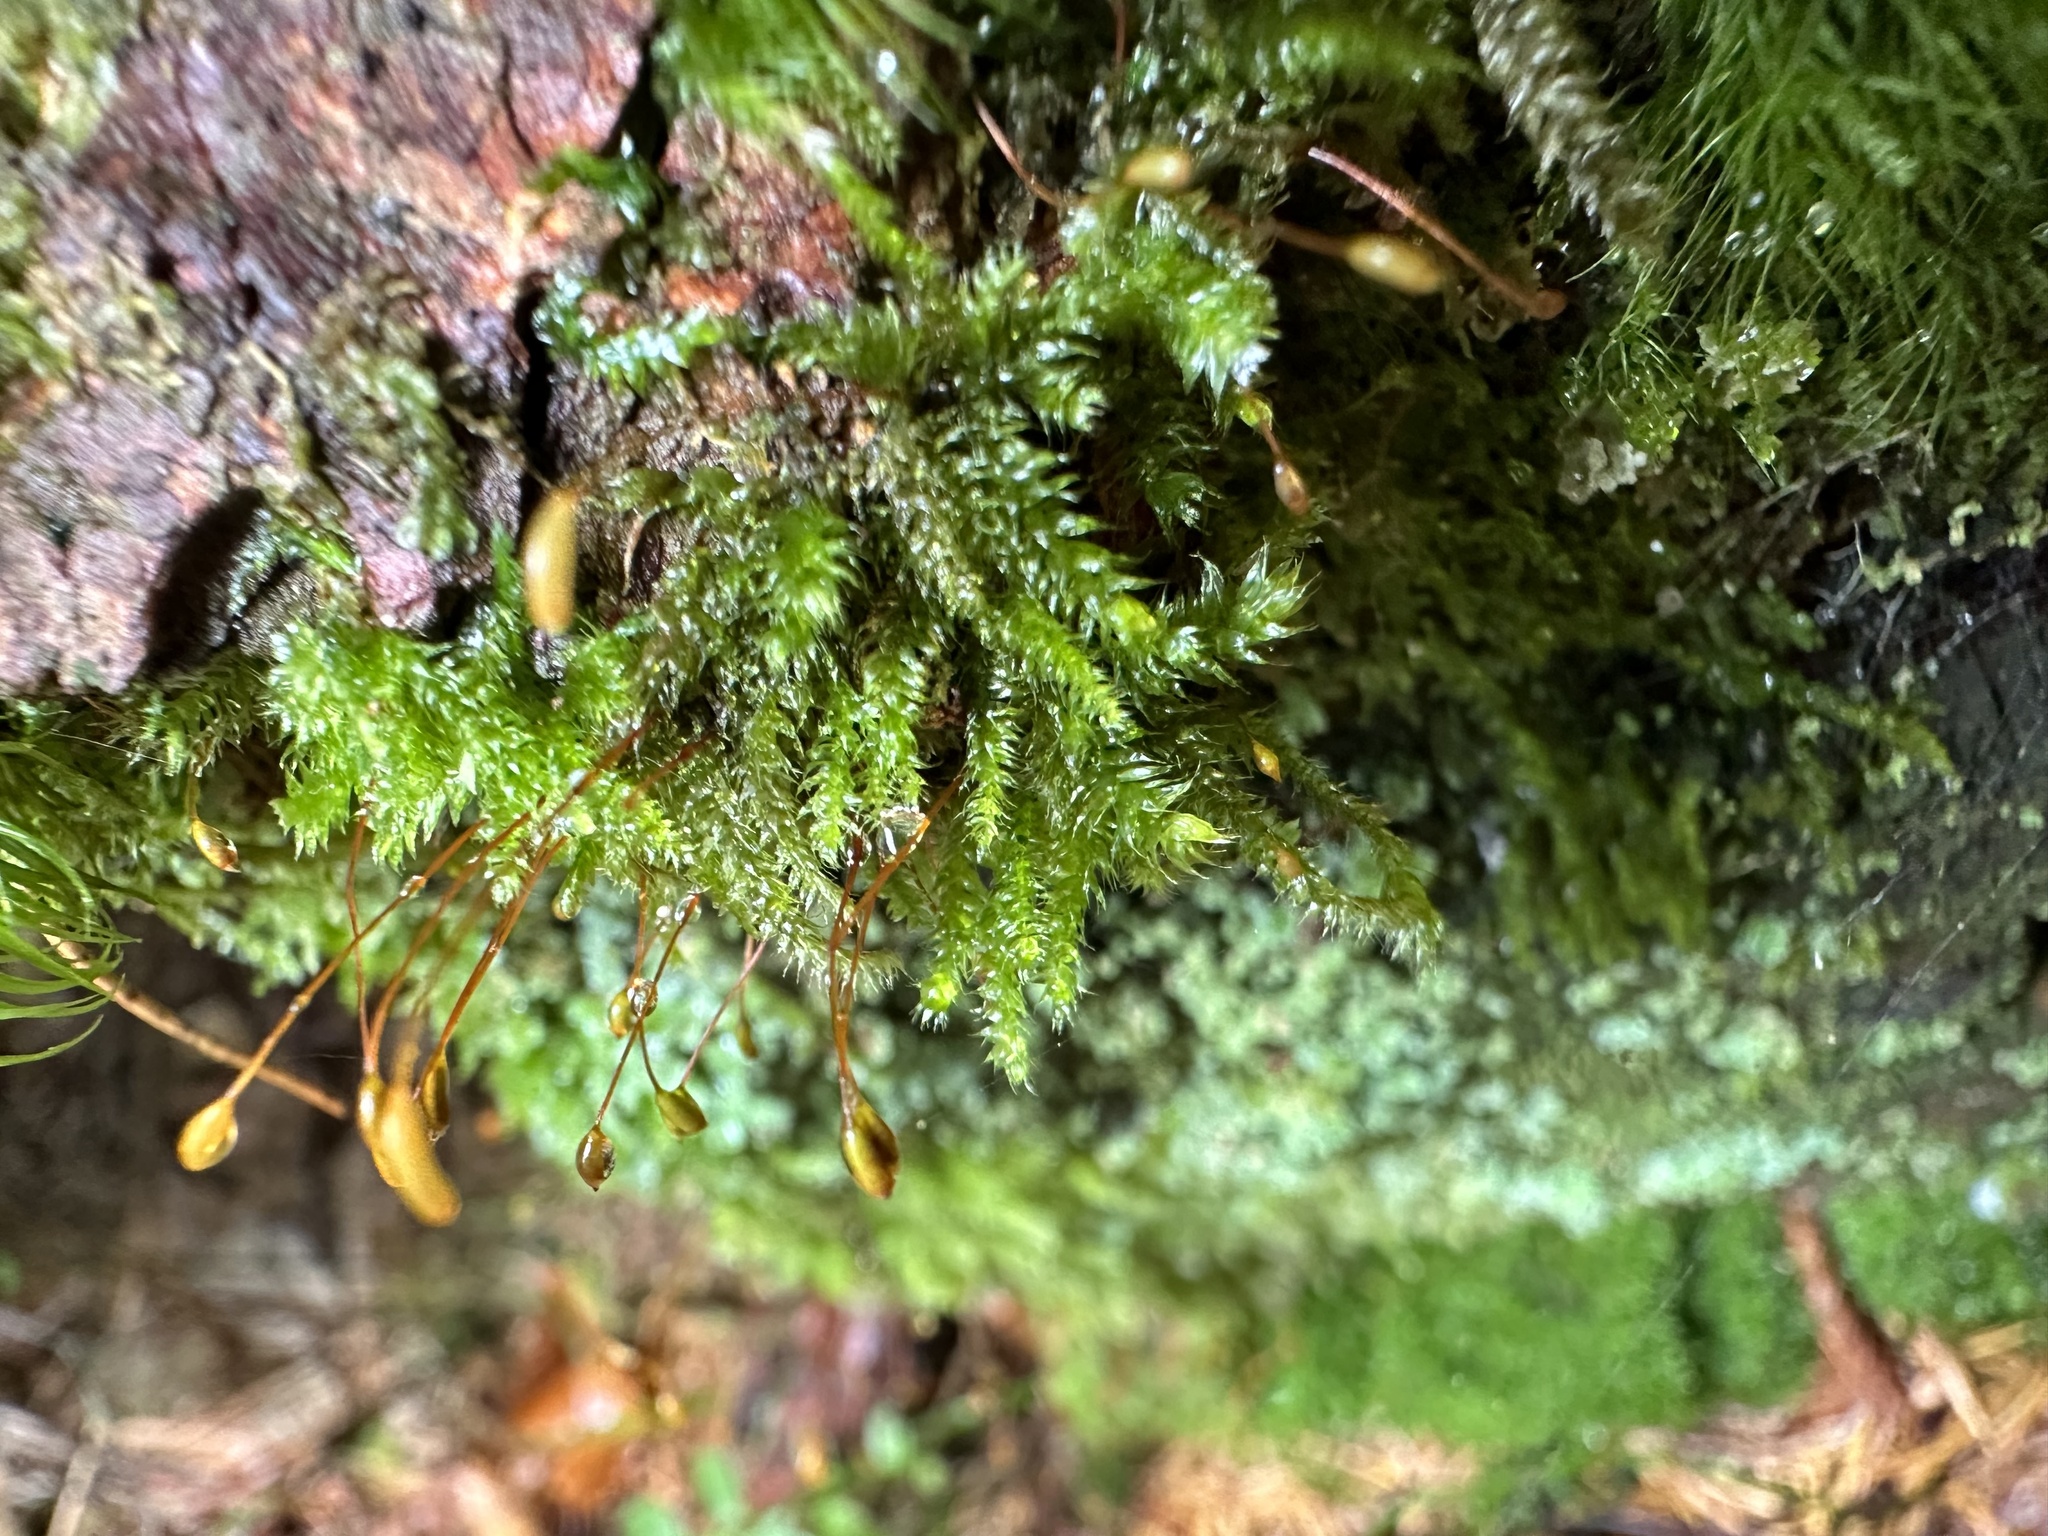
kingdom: Plantae
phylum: Bryophyta
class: Bryopsida
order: Hypnales
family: Plagiotheciaceae
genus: Herzogiella
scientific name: Herzogiella seligeri
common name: Silesian feather-moss
